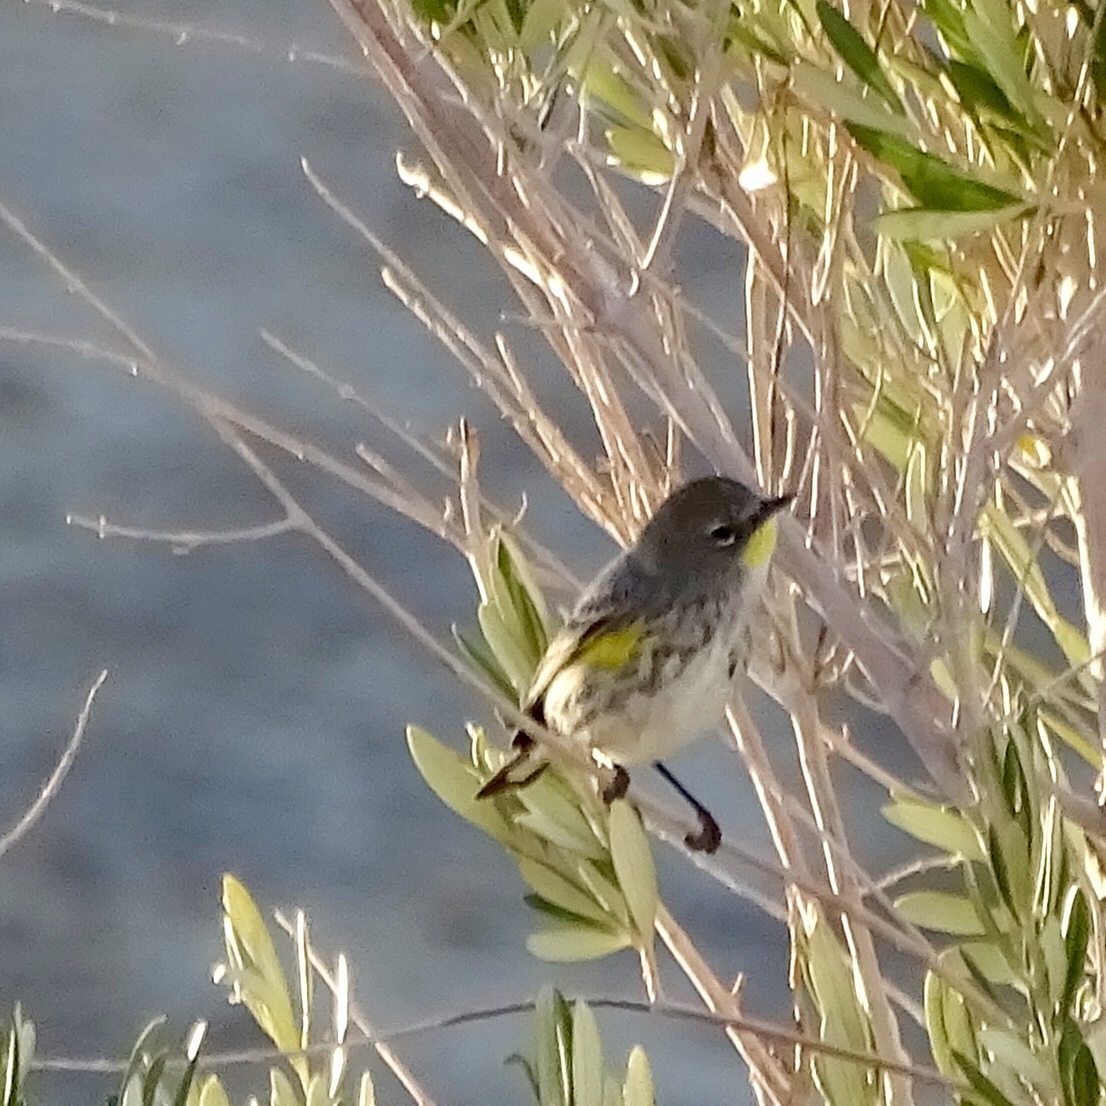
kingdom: Animalia
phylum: Chordata
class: Aves
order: Passeriformes
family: Parulidae
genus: Setophaga
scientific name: Setophaga auduboni
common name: Audubon's warbler
